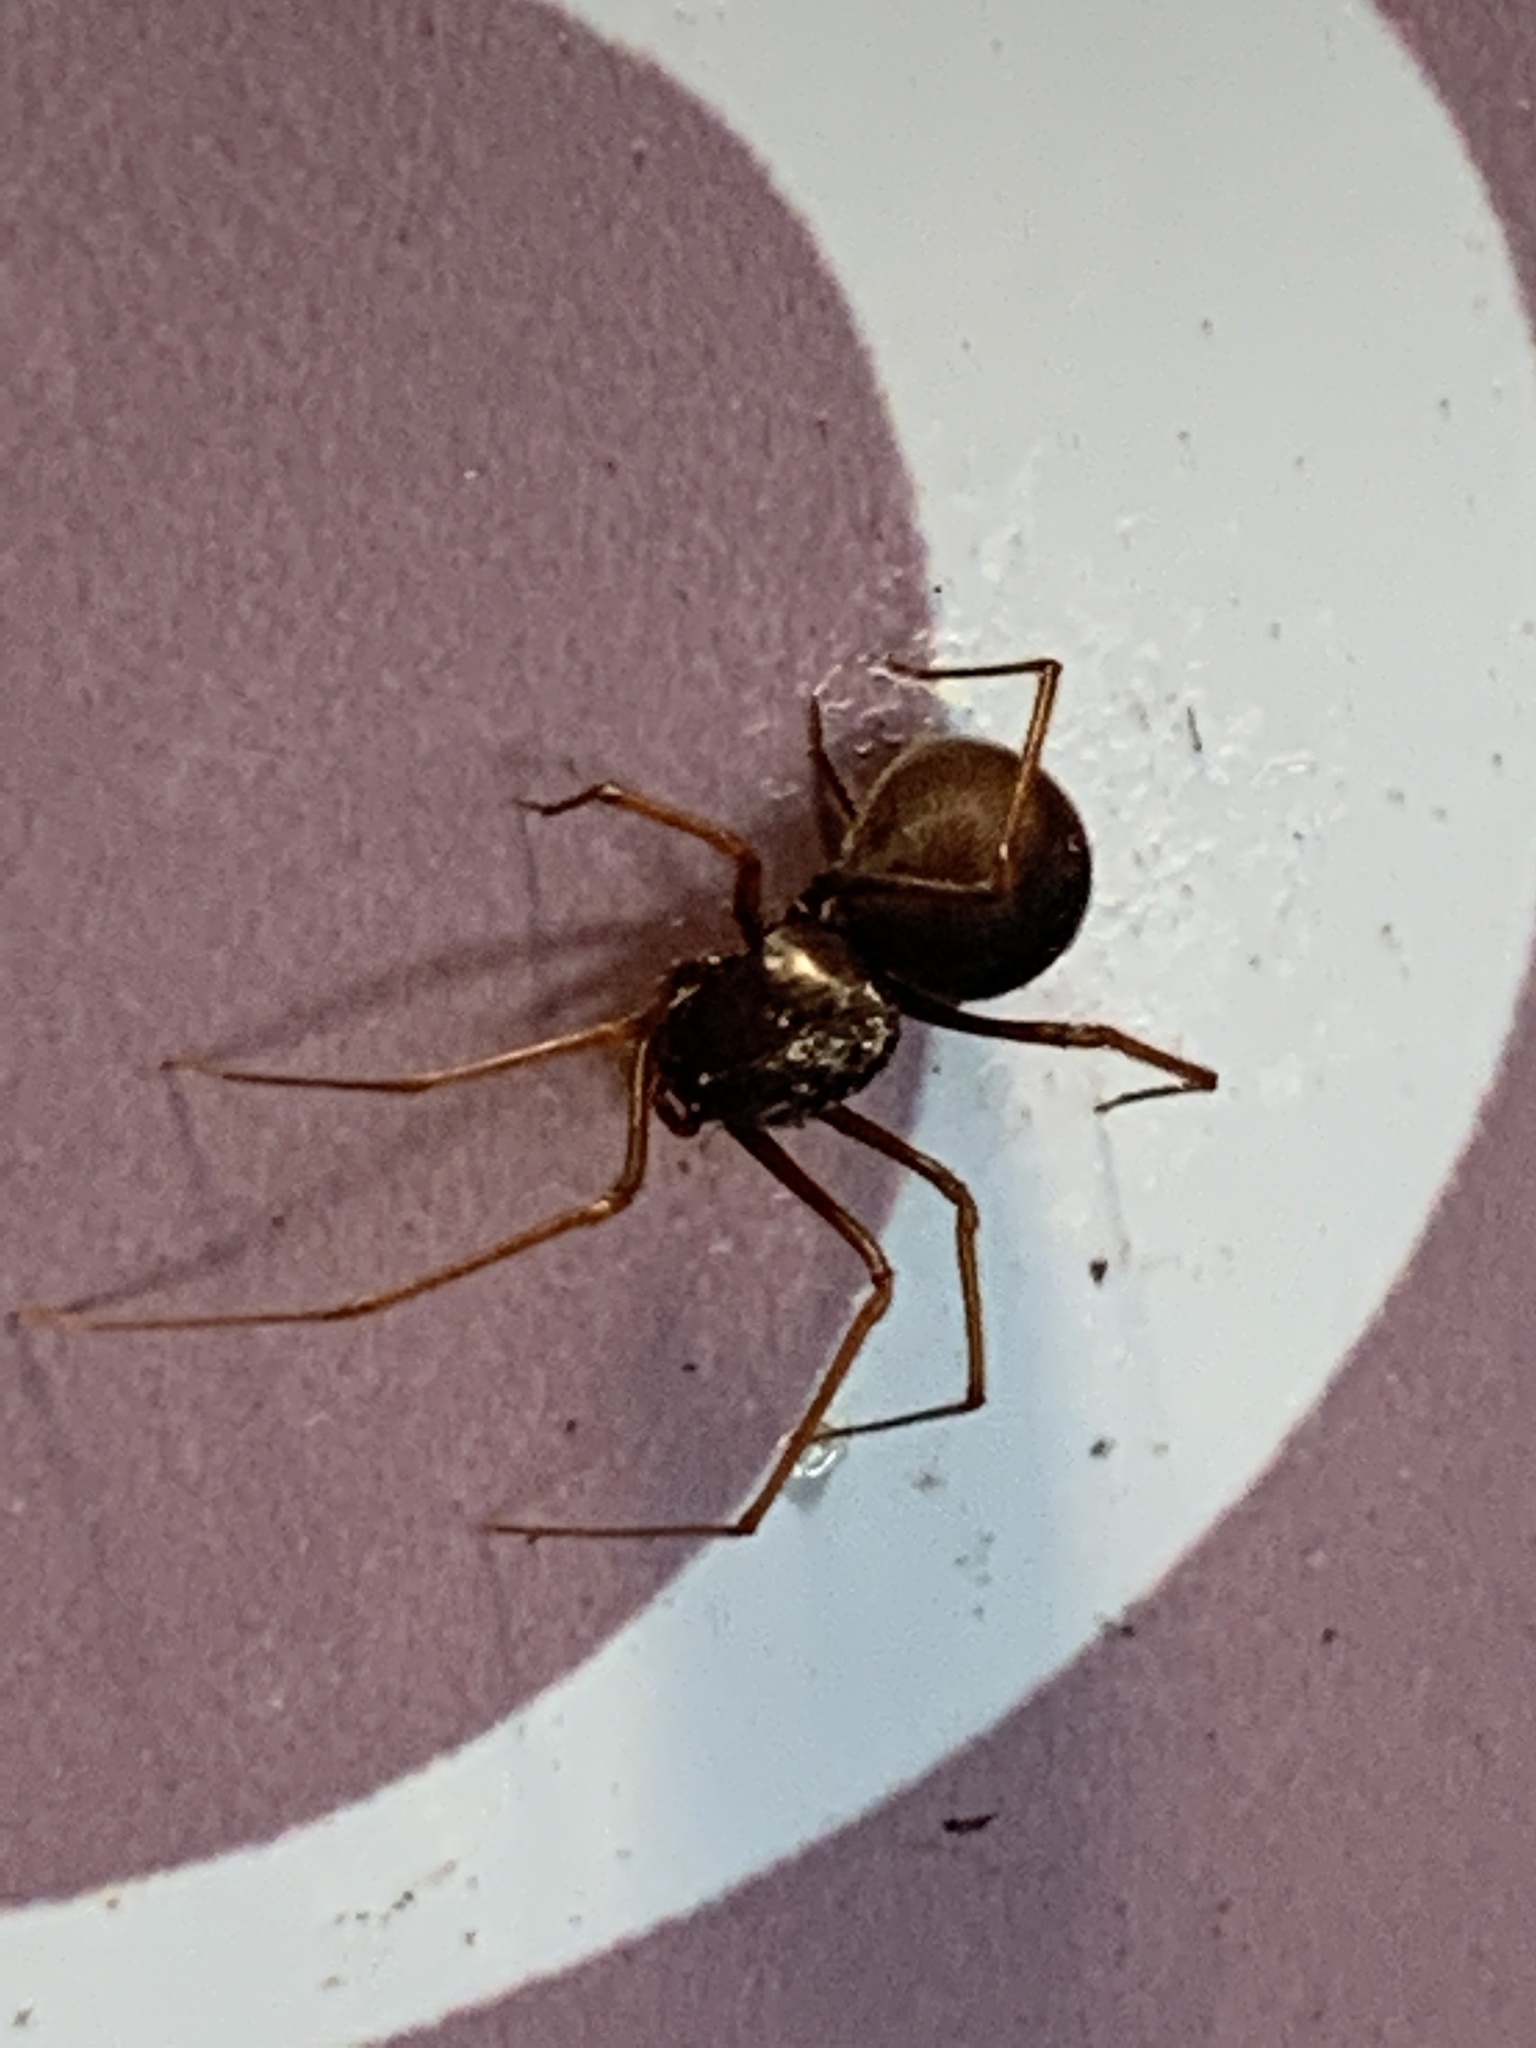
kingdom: Animalia
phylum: Arthropoda
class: Arachnida
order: Araneae
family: Scytodidae
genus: Scytodes
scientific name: Scytodes fusca
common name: Spitting spiders
